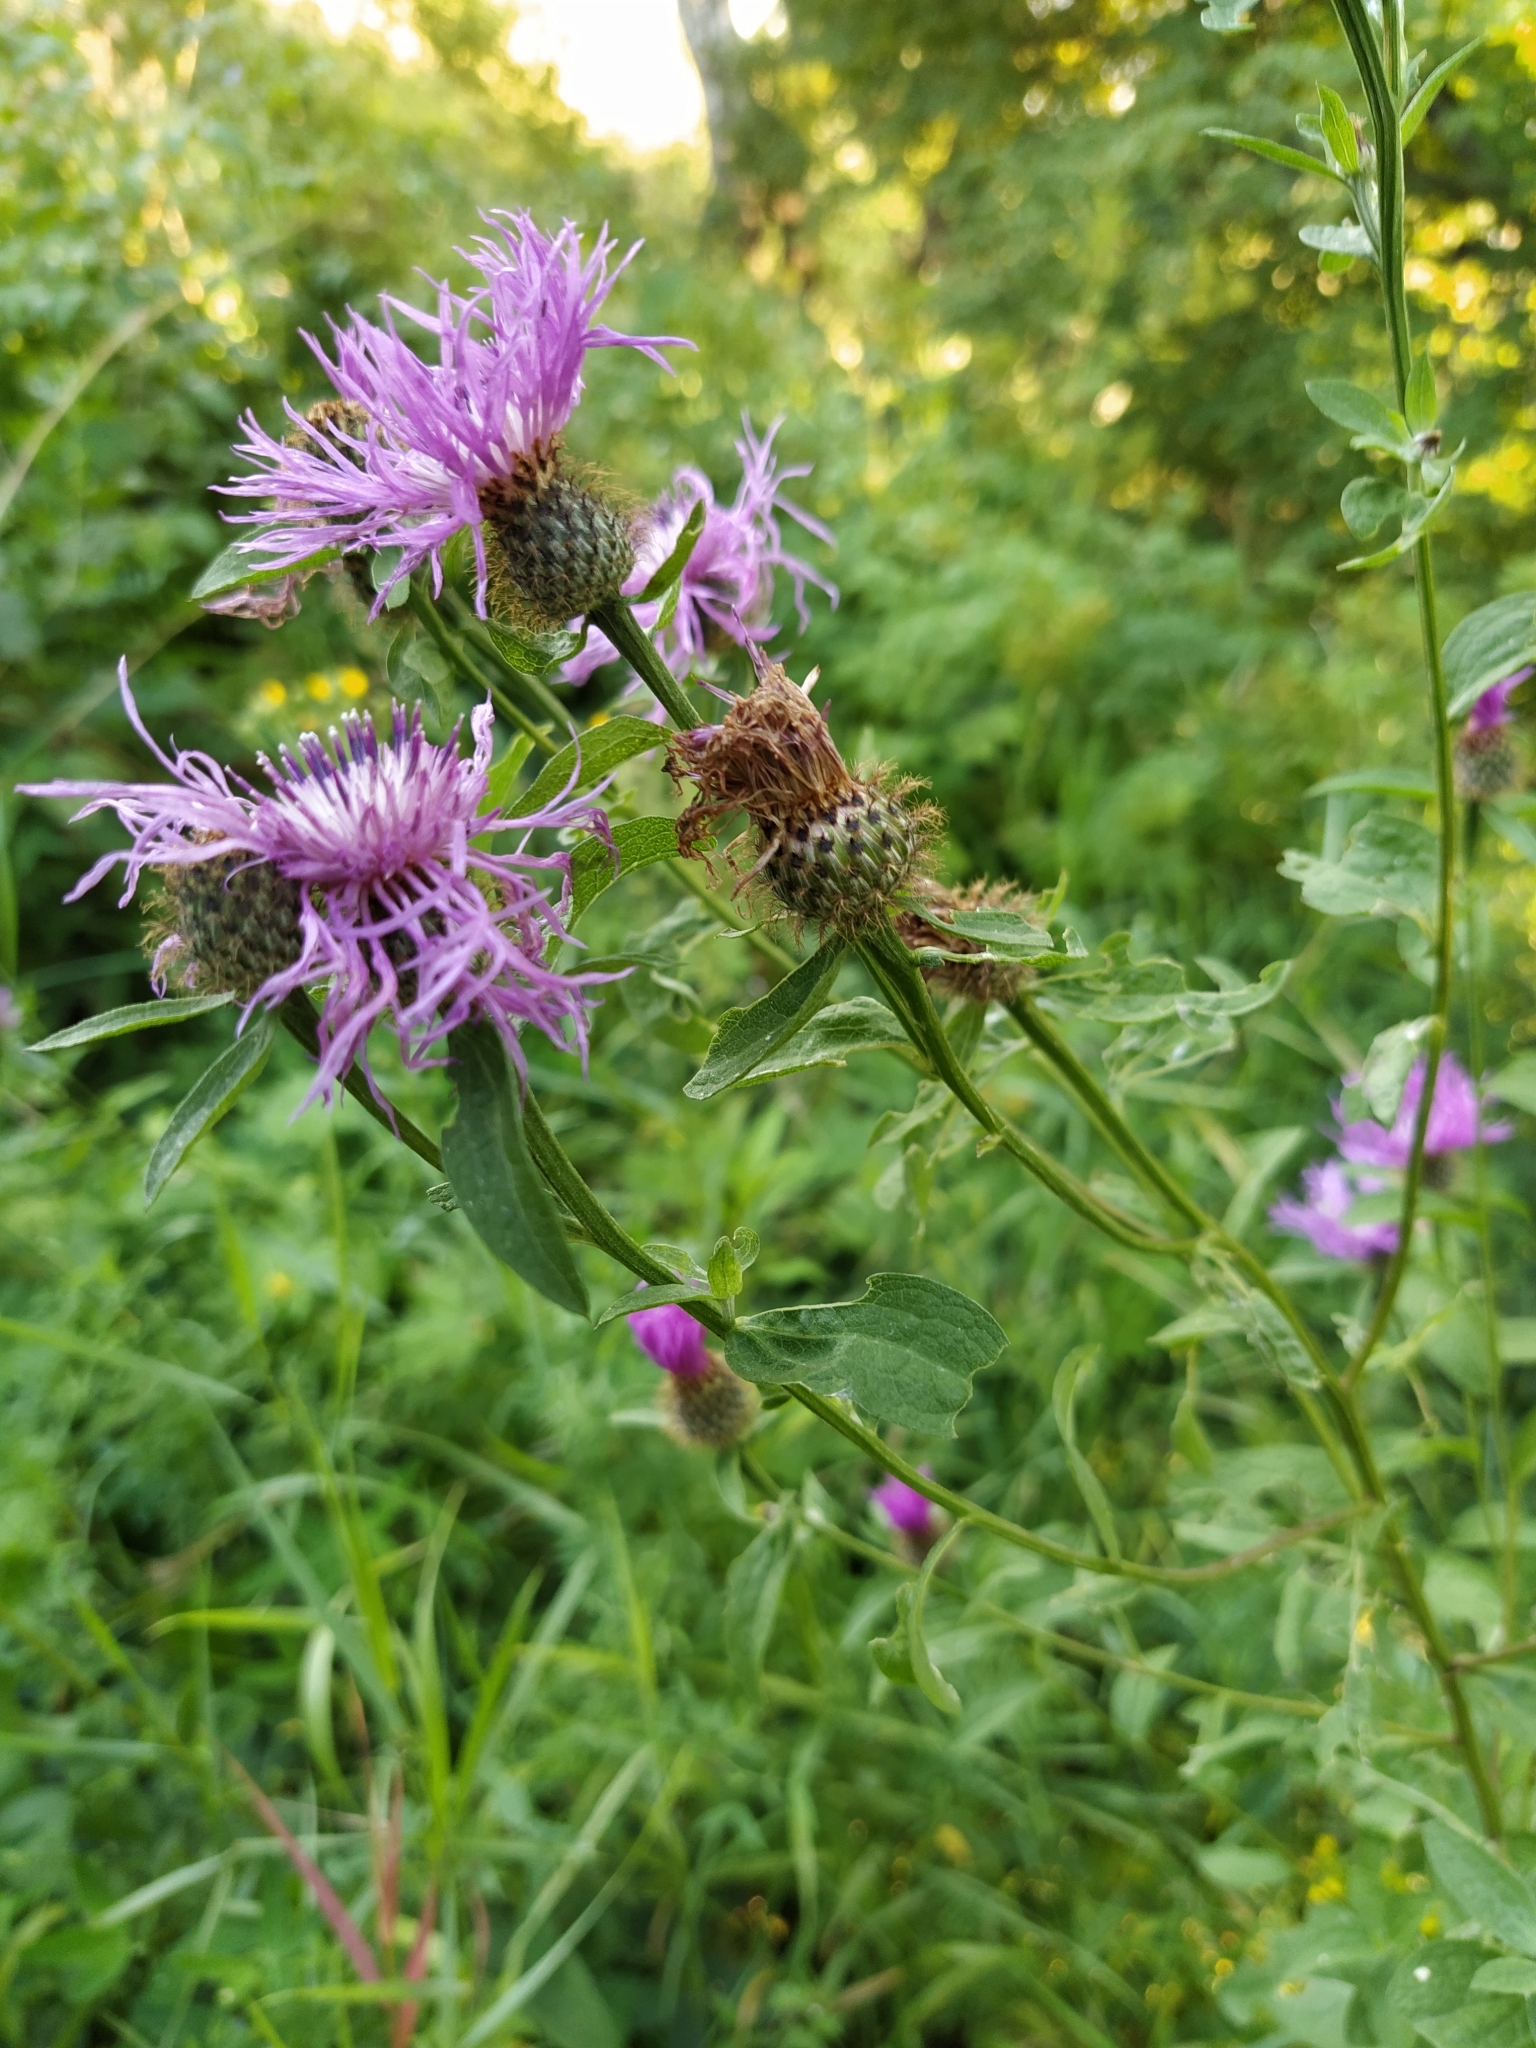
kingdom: Plantae
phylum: Tracheophyta
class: Magnoliopsida
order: Asterales
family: Asteraceae
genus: Centaurea
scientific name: Centaurea phrygia
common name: Wig knapweed
